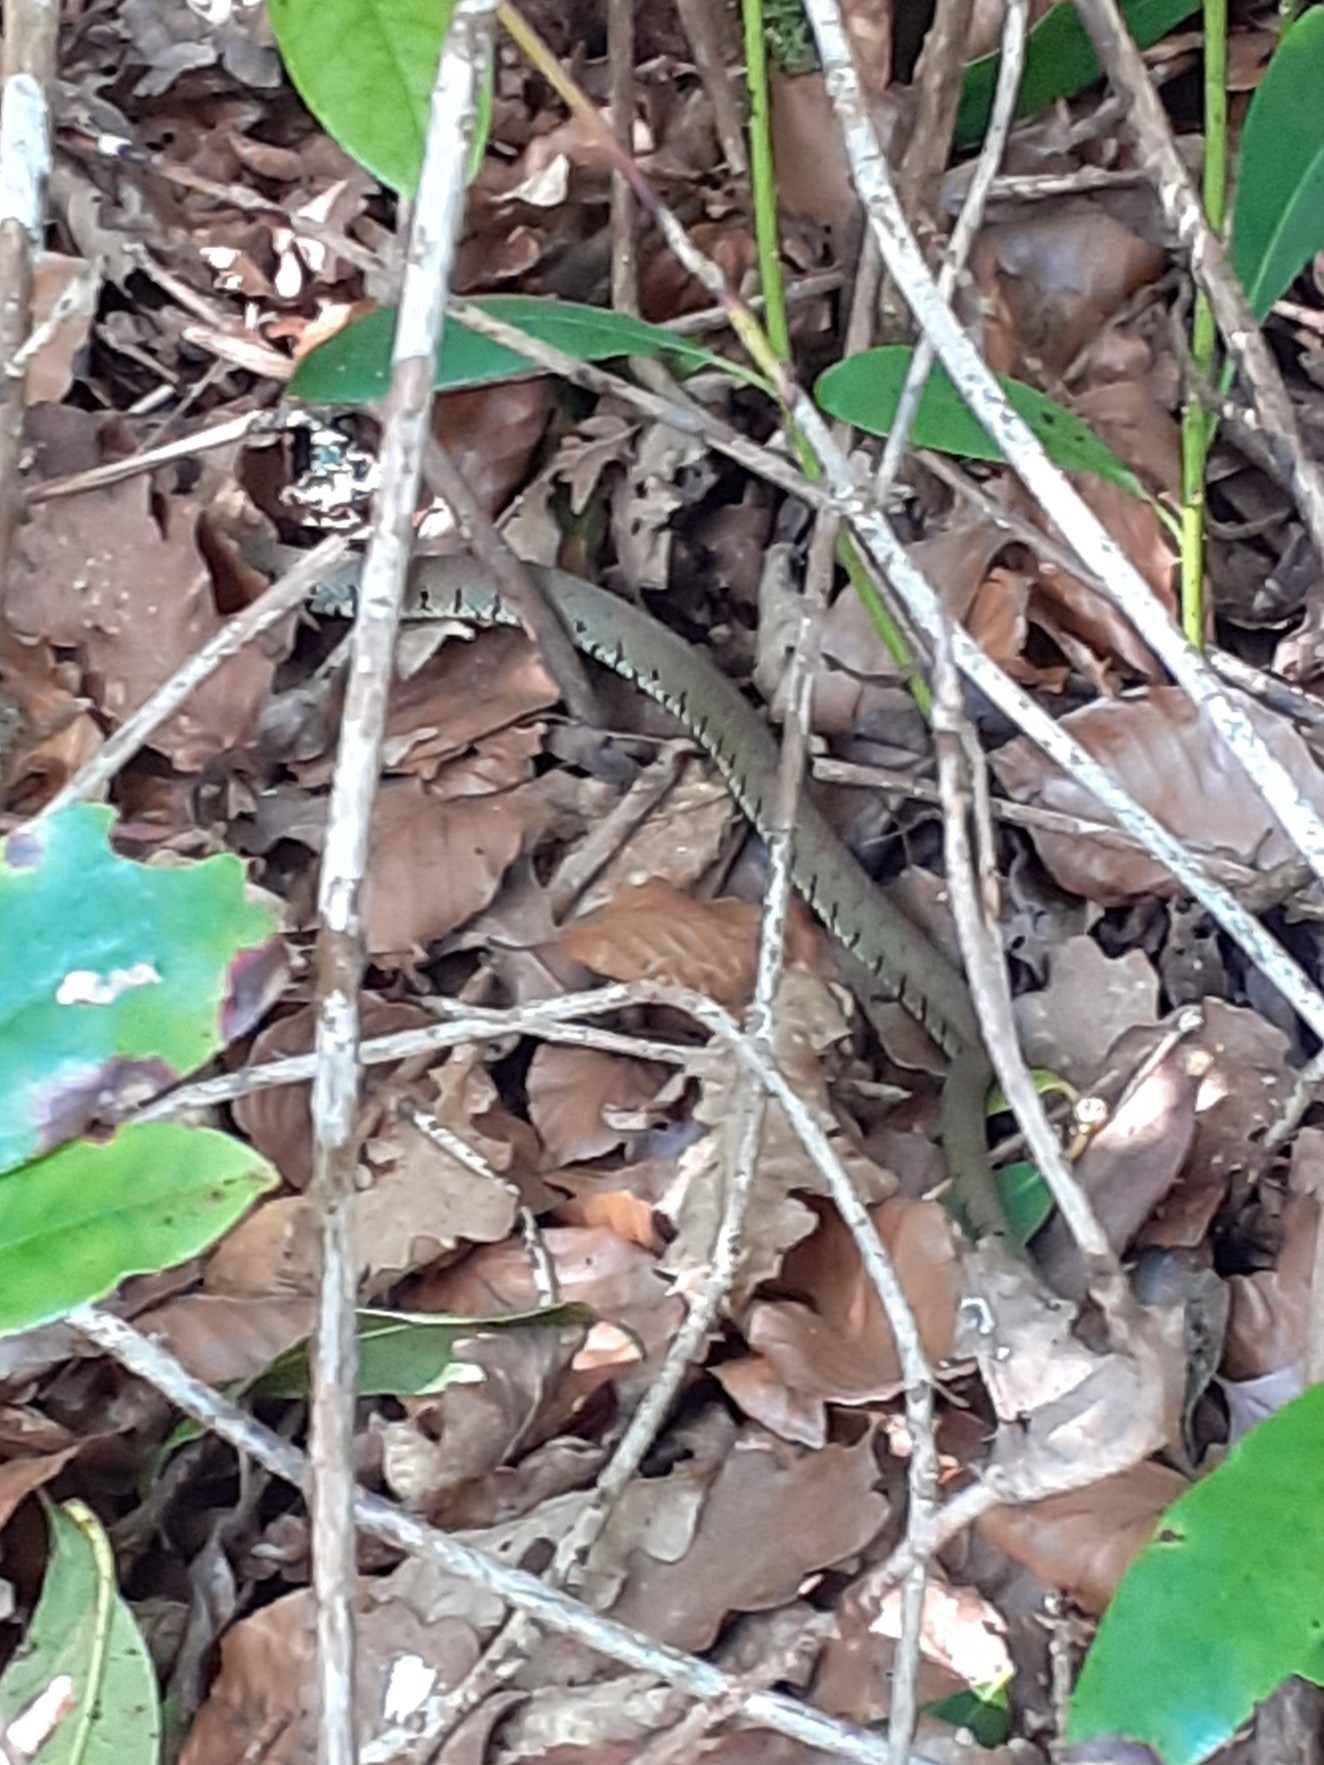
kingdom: Animalia
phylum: Chordata
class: Squamata
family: Colubridae
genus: Natrix
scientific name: Natrix helvetica
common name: Banded grass snake
